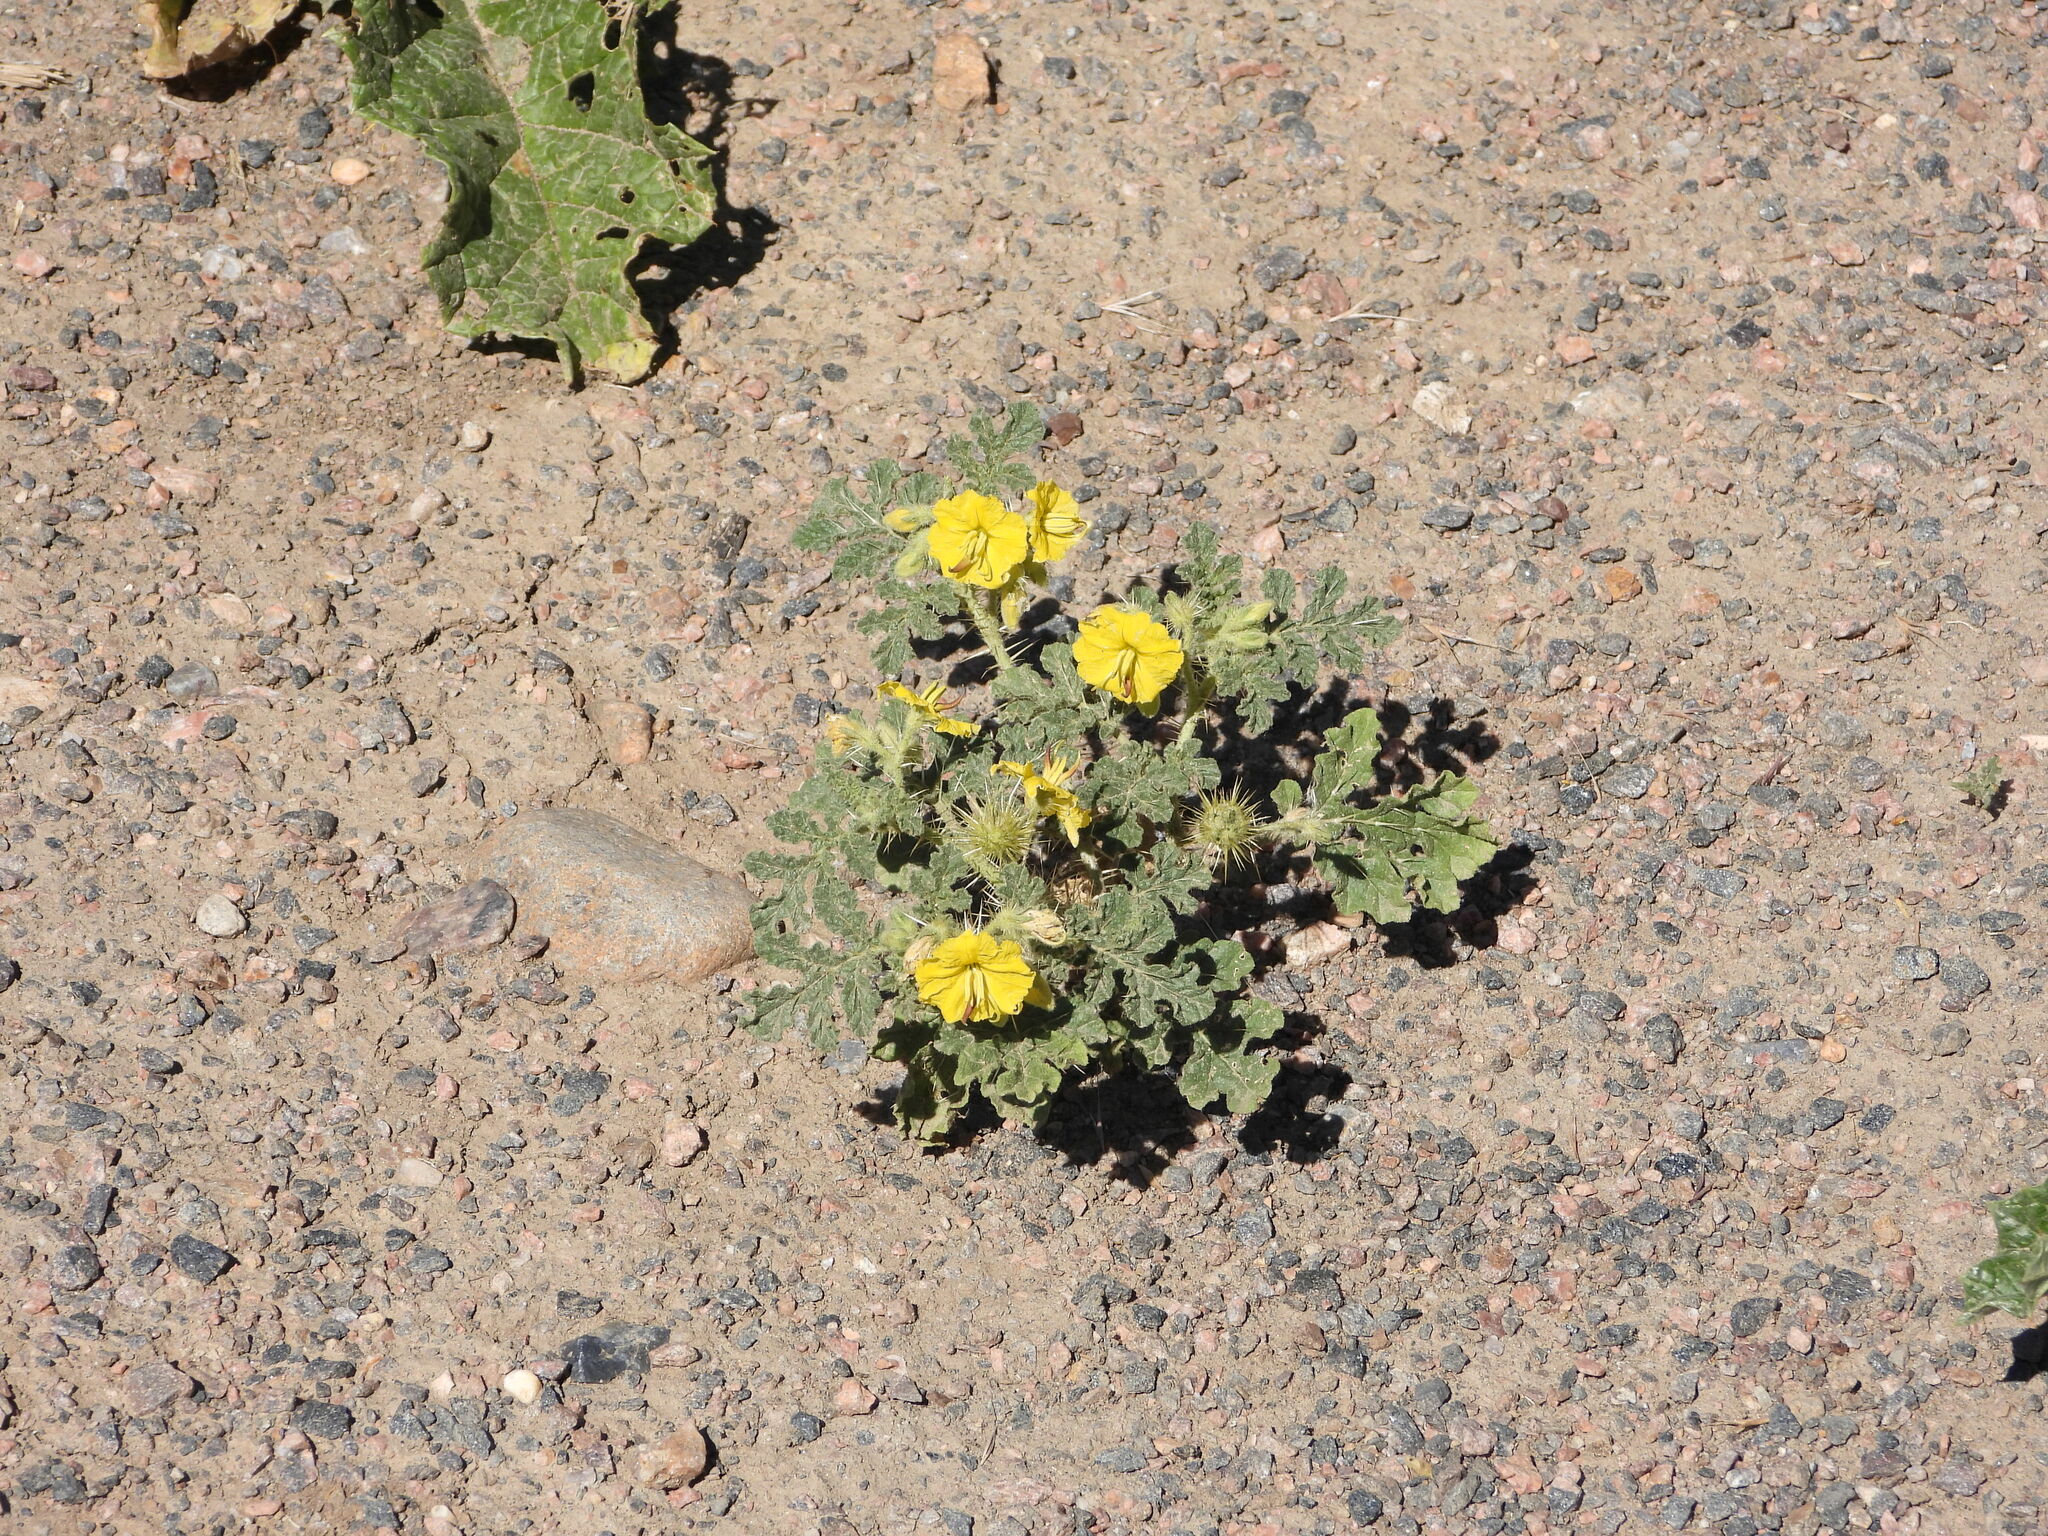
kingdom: Plantae
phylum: Tracheophyta
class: Magnoliopsida
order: Solanales
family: Solanaceae
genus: Solanum
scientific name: Solanum angustifolium
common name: Buffalobur nightshade
